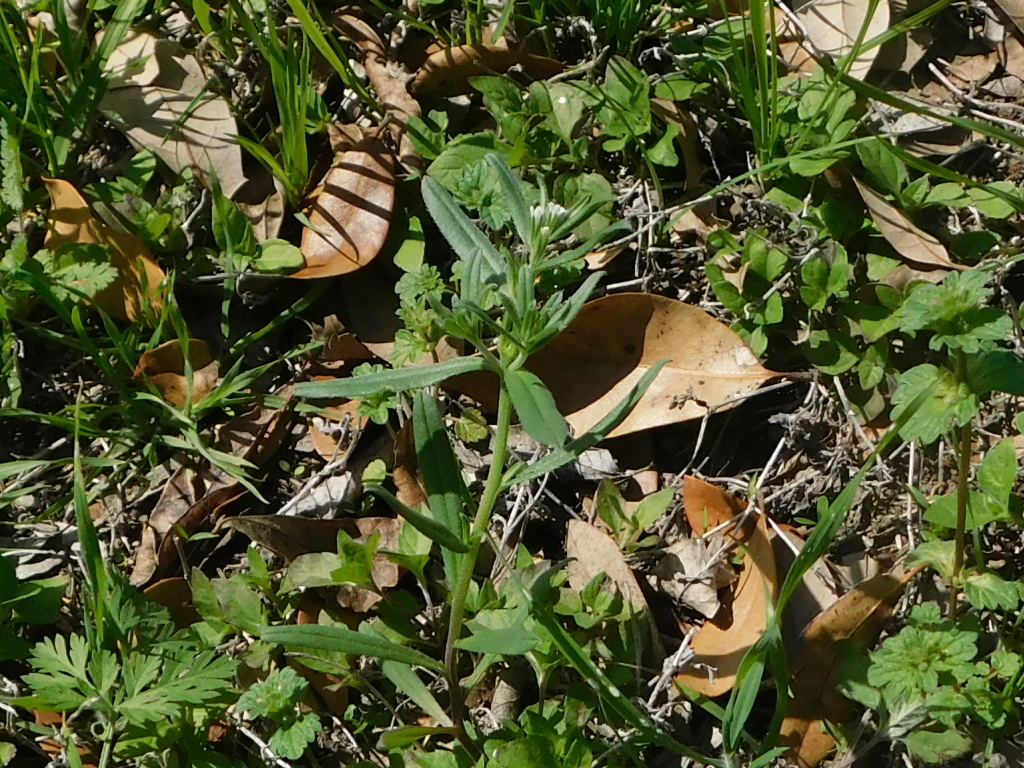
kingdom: Plantae
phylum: Tracheophyta
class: Magnoliopsida
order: Boraginales
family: Boraginaceae
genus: Buglossoides
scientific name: Buglossoides arvensis
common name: Corn gromwell
